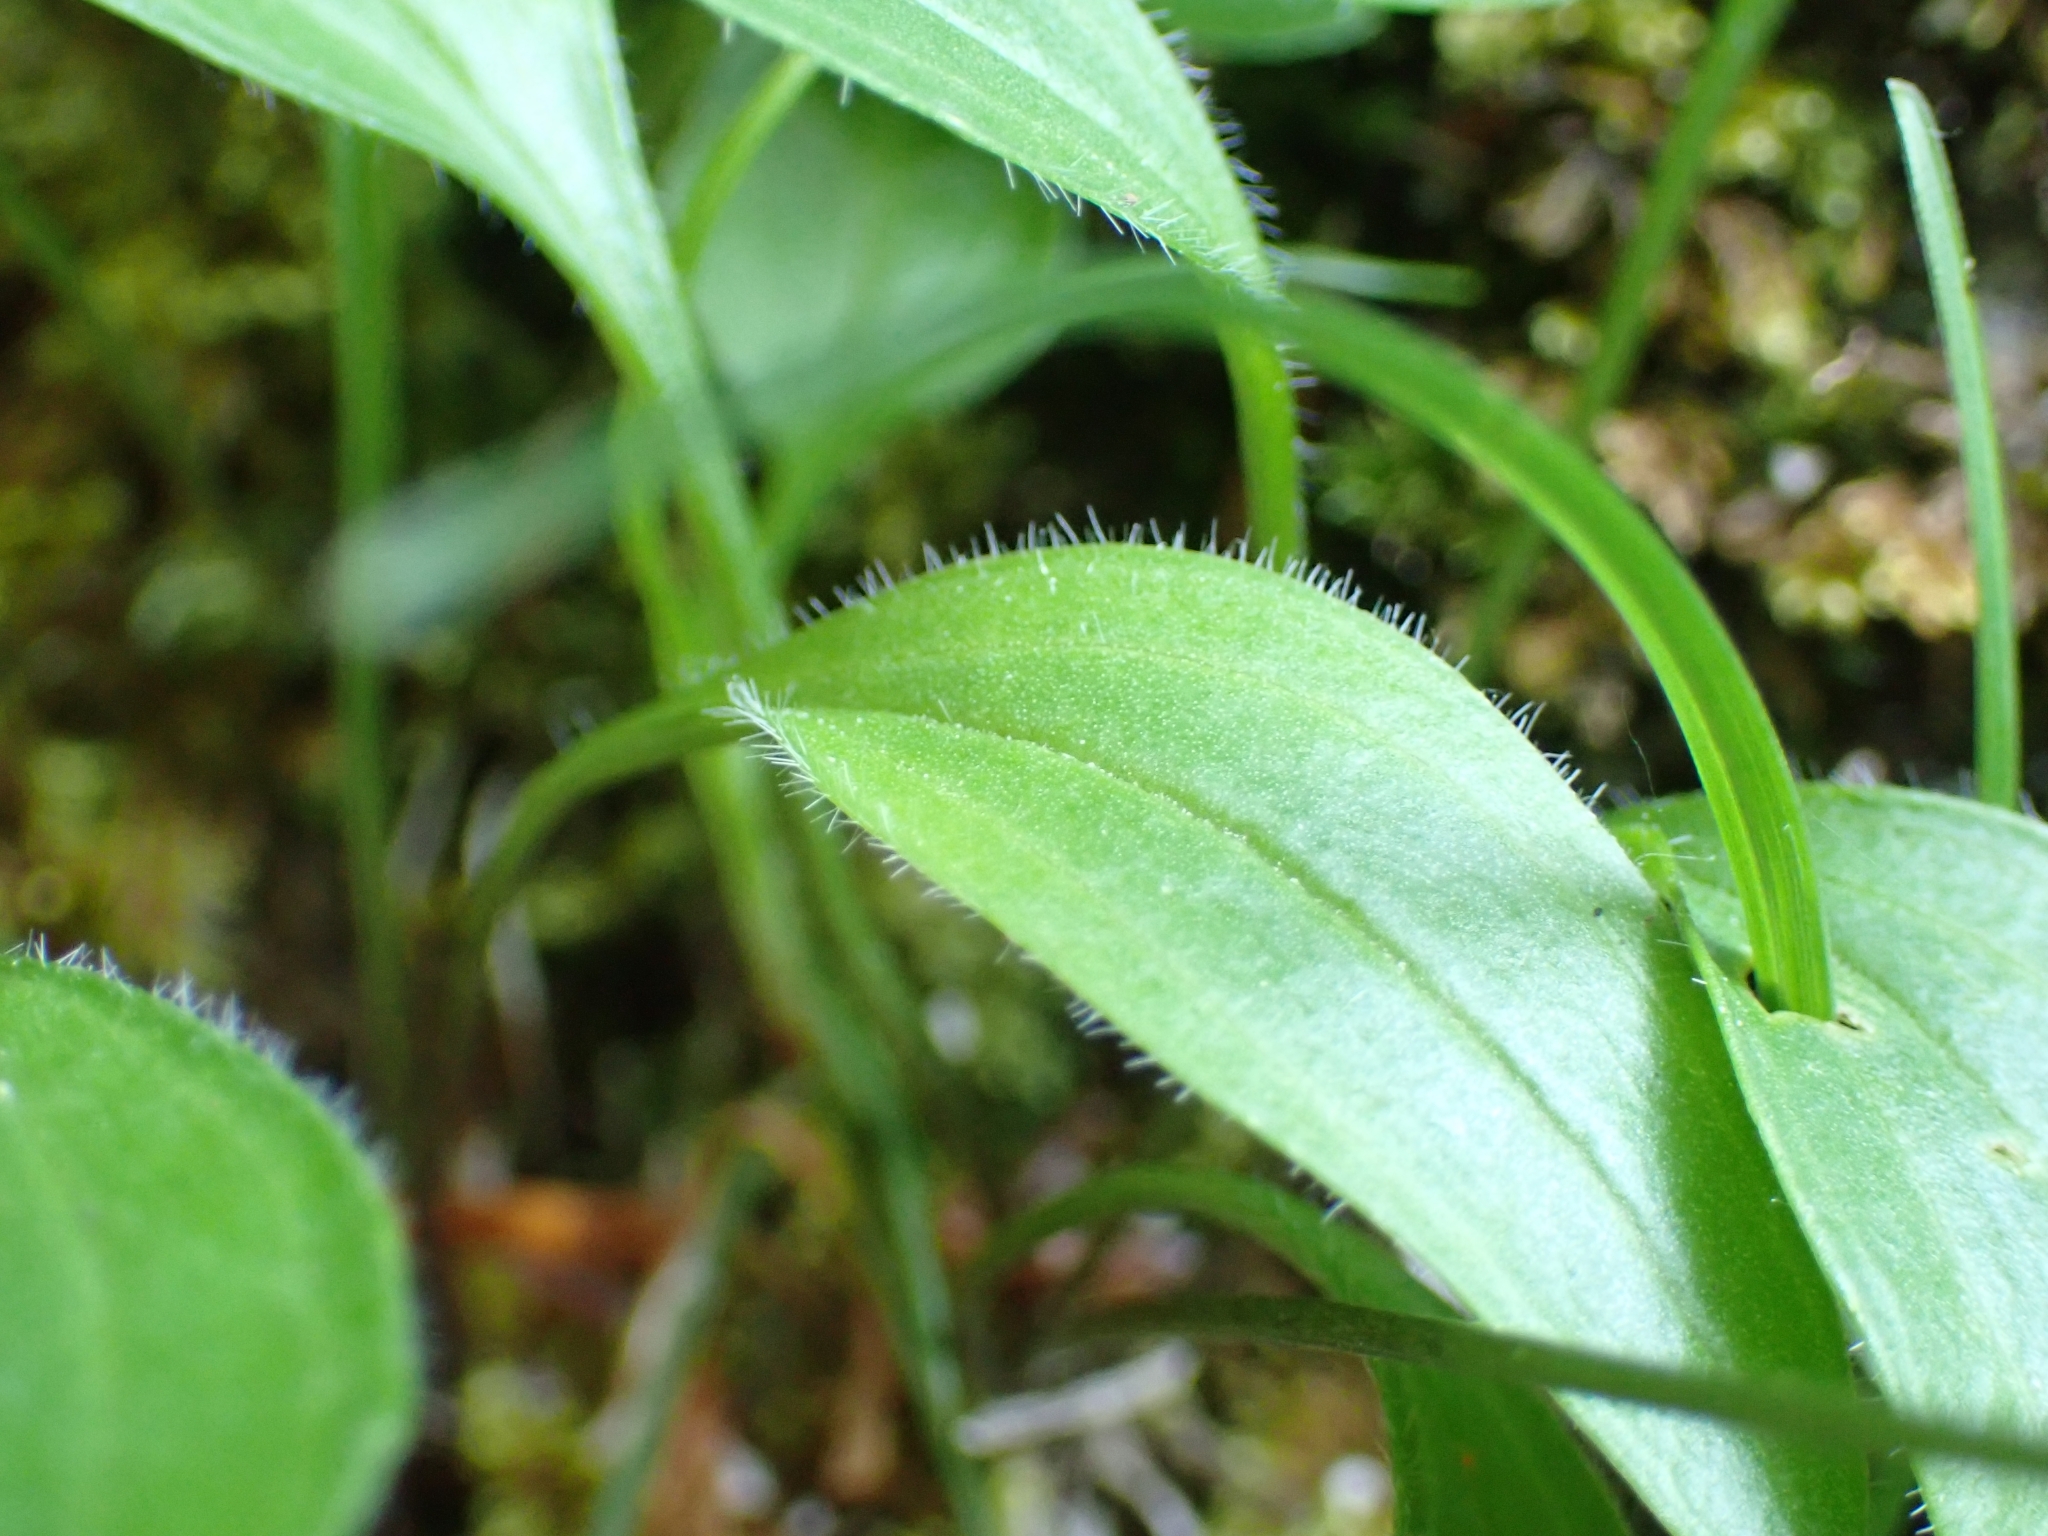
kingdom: Plantae
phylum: Tracheophyta
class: Magnoliopsida
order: Dipsacales
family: Caprifoliaceae
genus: Valeriana
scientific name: Valeriana saxatilis
